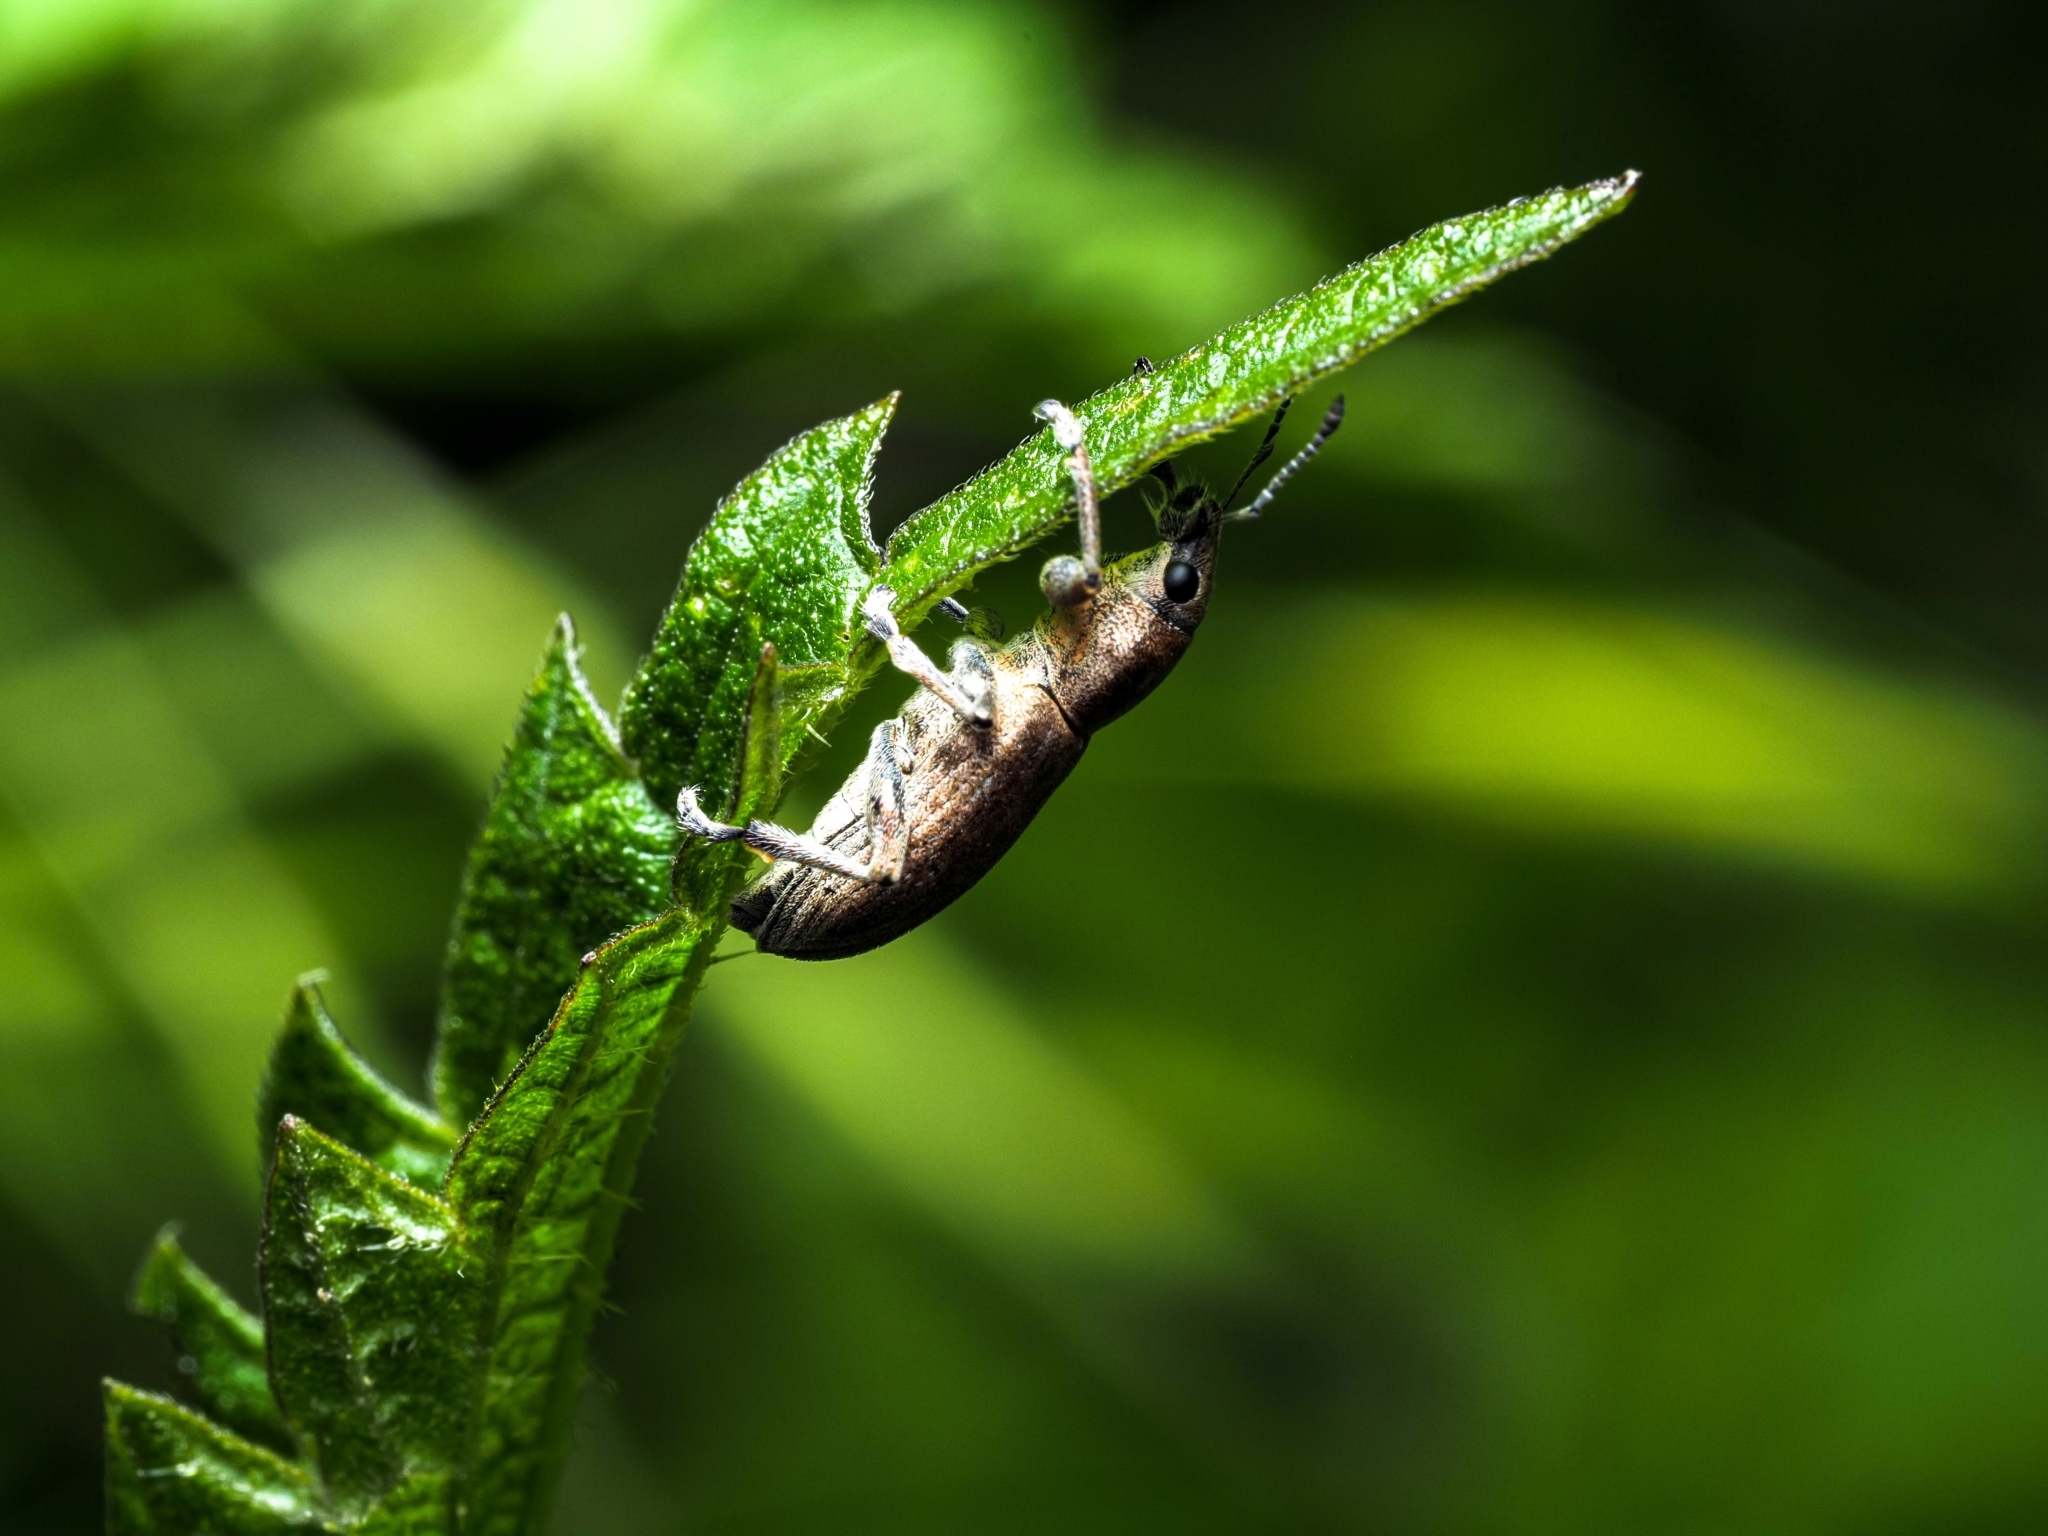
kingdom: Animalia
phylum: Arthropoda
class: Insecta
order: Coleoptera
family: Curculionidae
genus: Tanymecus
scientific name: Tanymecus palliatus
